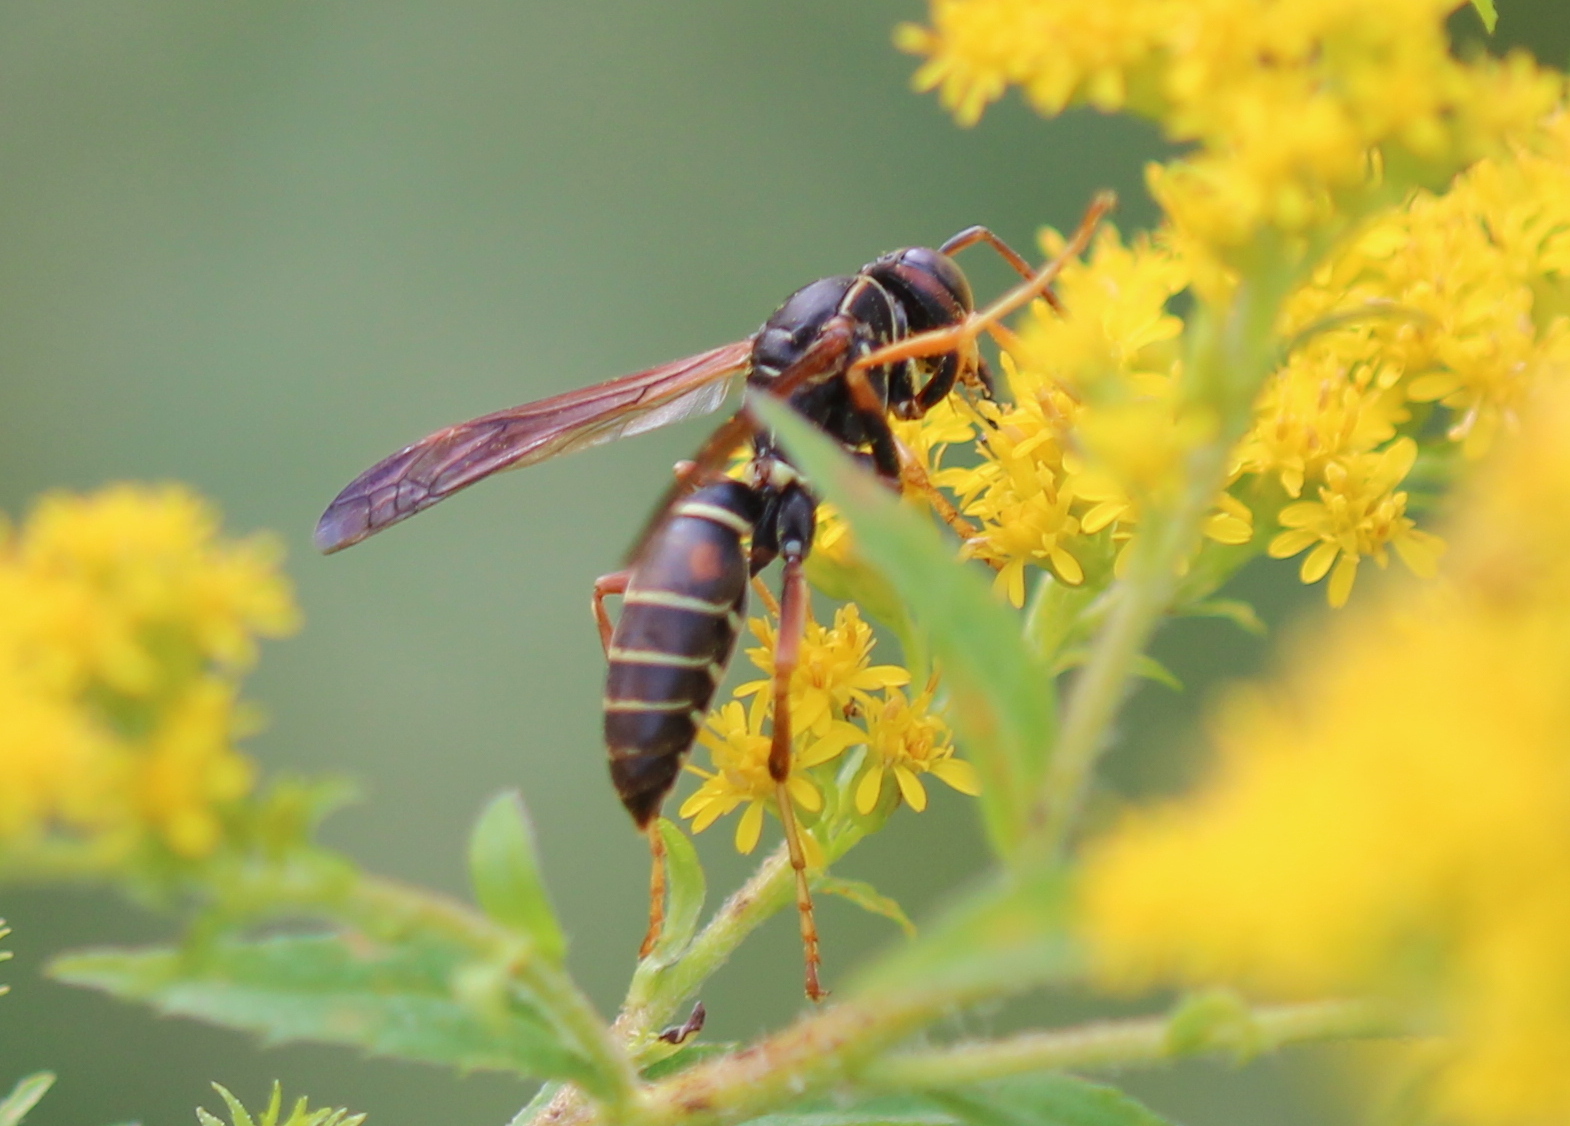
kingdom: Animalia
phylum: Arthropoda
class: Insecta
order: Hymenoptera
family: Eumenidae
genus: Polistes
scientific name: Polistes fuscatus
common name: Dark paper wasp
